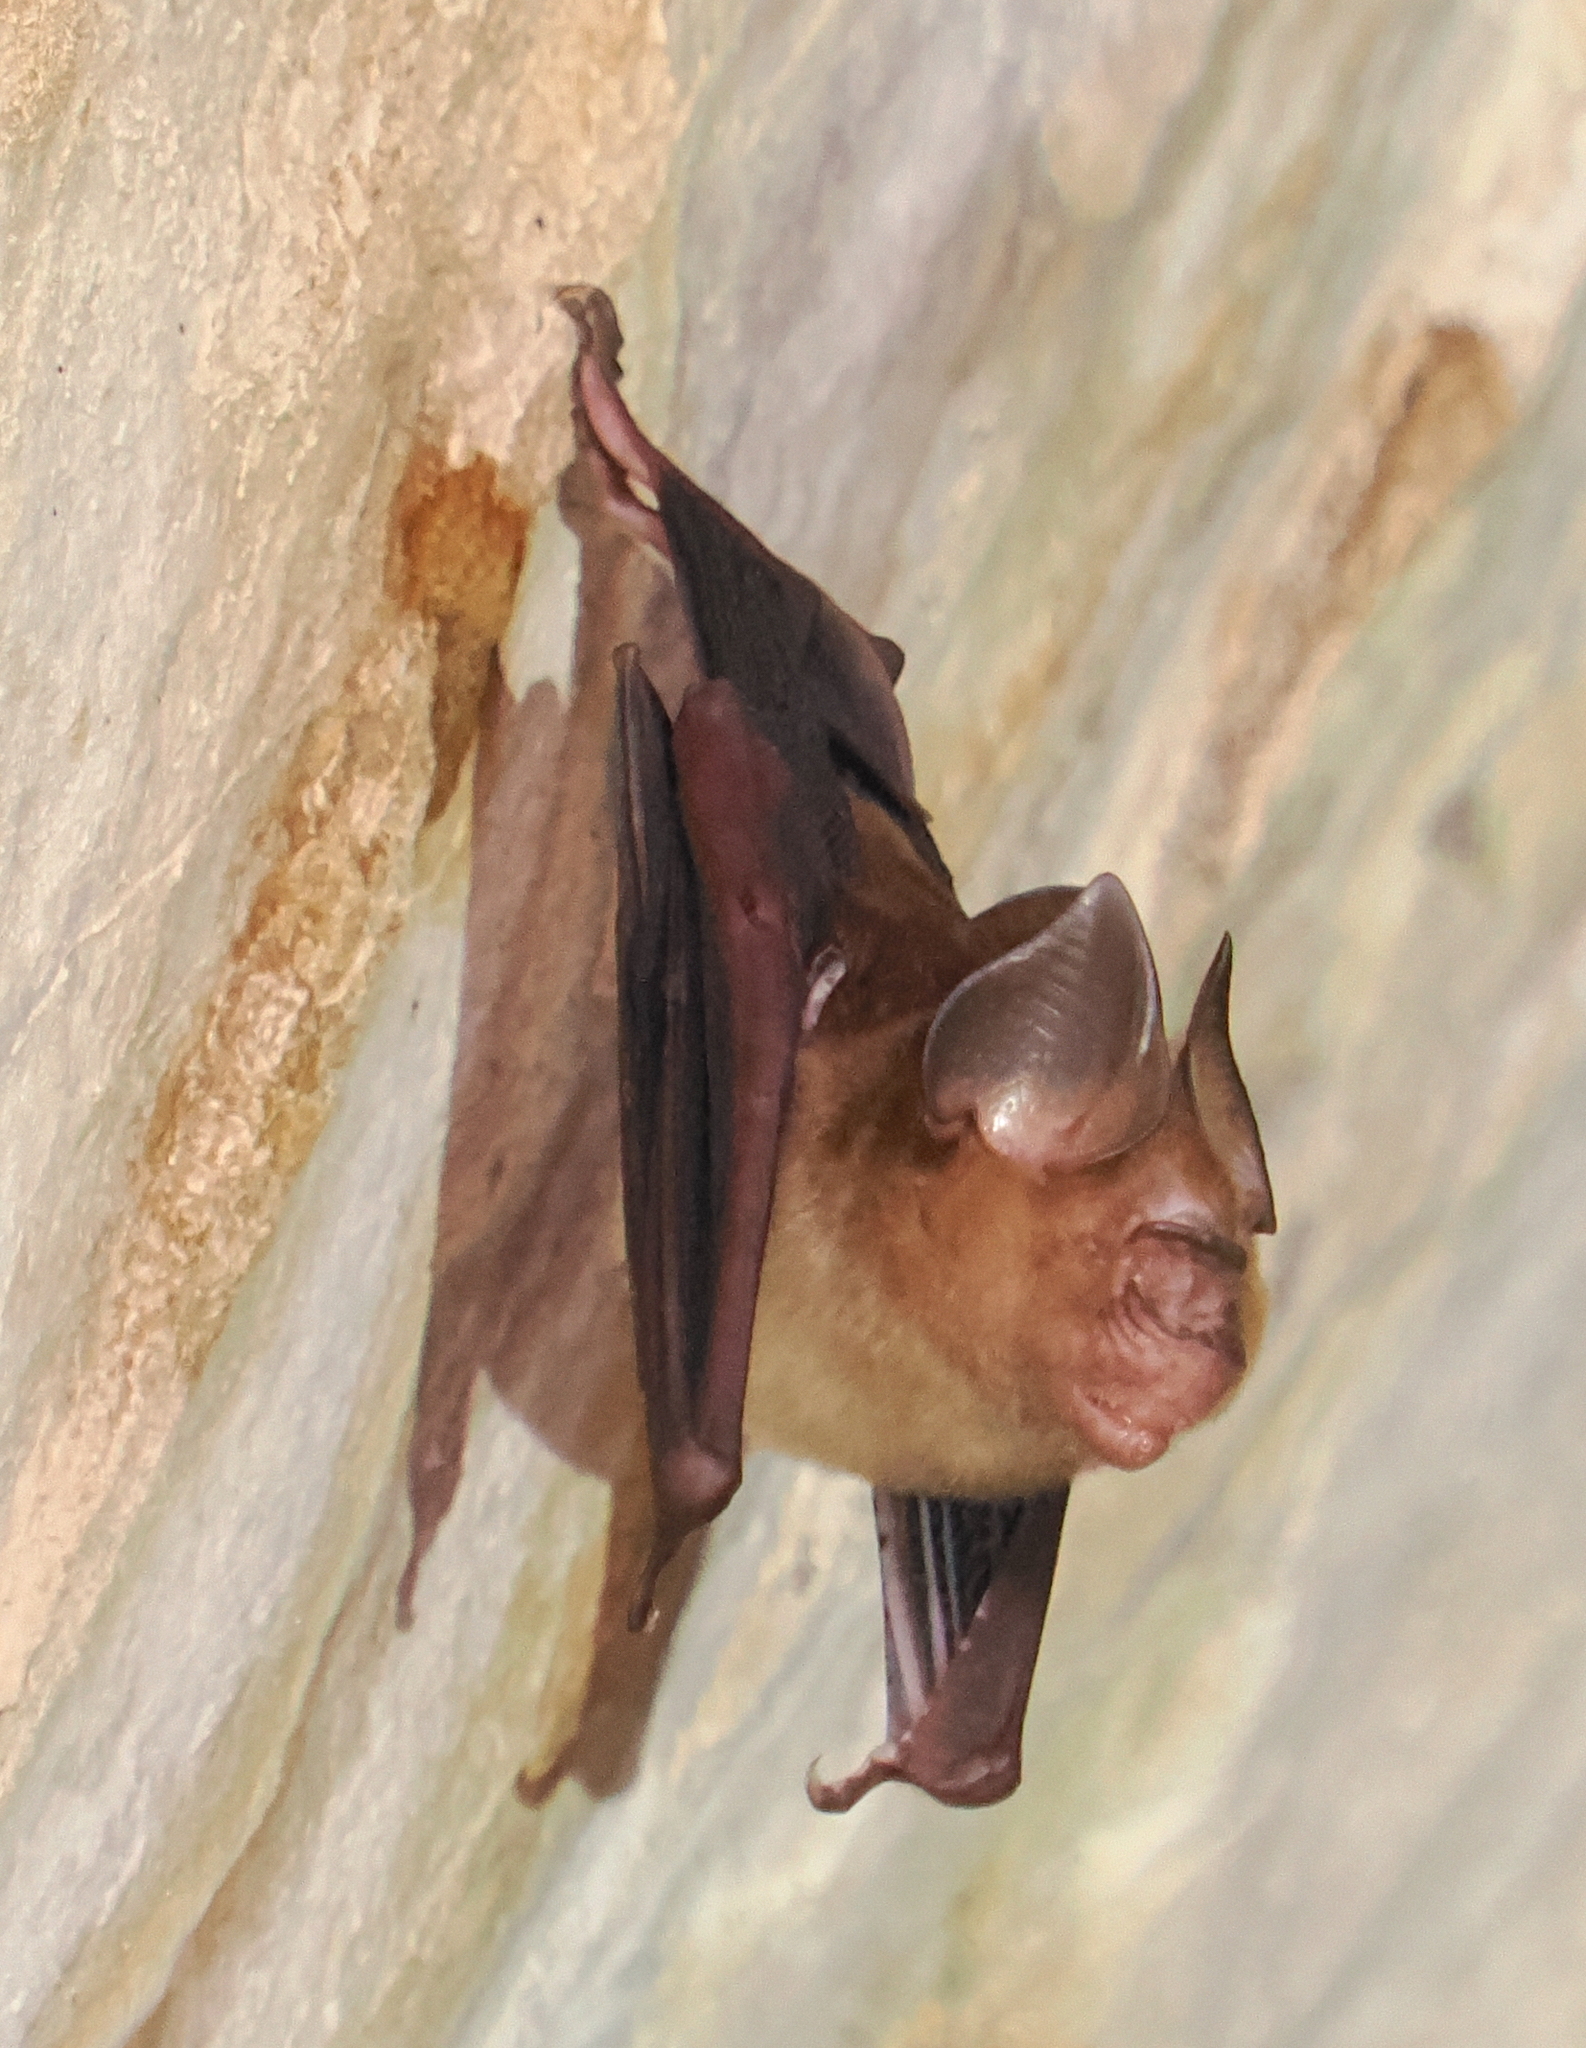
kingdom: Animalia
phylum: Chordata
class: Mammalia
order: Chiroptera
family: Hipposideridae
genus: Hipposideros
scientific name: Hipposideros larvatus
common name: Intermediate leaf-nosed bat
